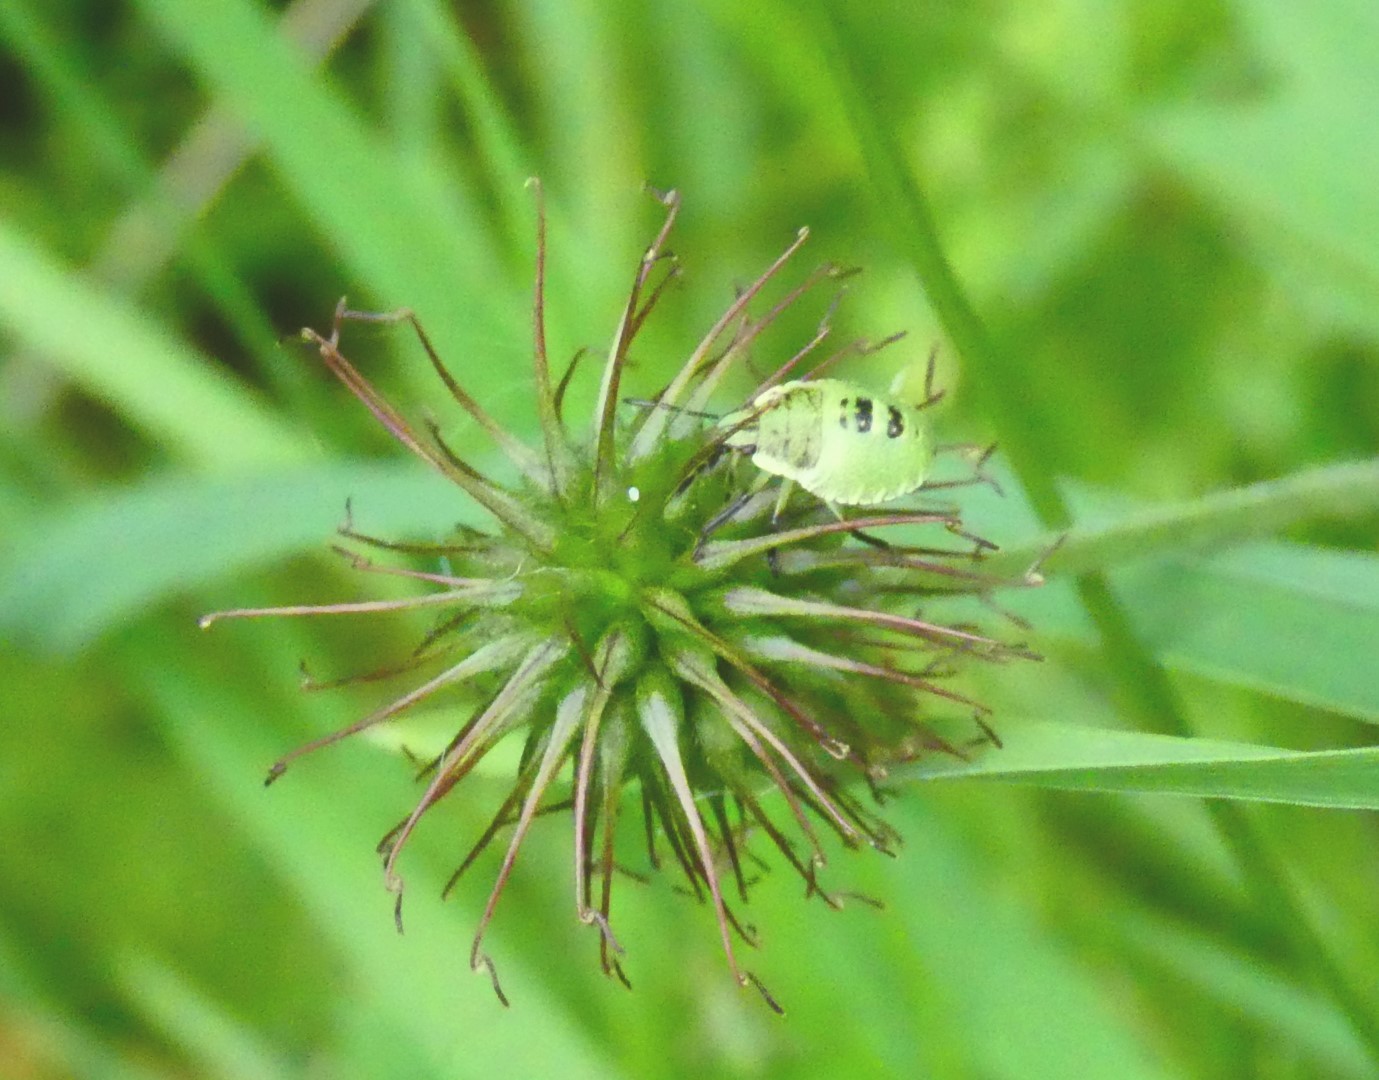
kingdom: Animalia
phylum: Arthropoda
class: Insecta
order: Hemiptera
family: Pentatomidae
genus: Palomena
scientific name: Palomena prasina
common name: Green shieldbug
